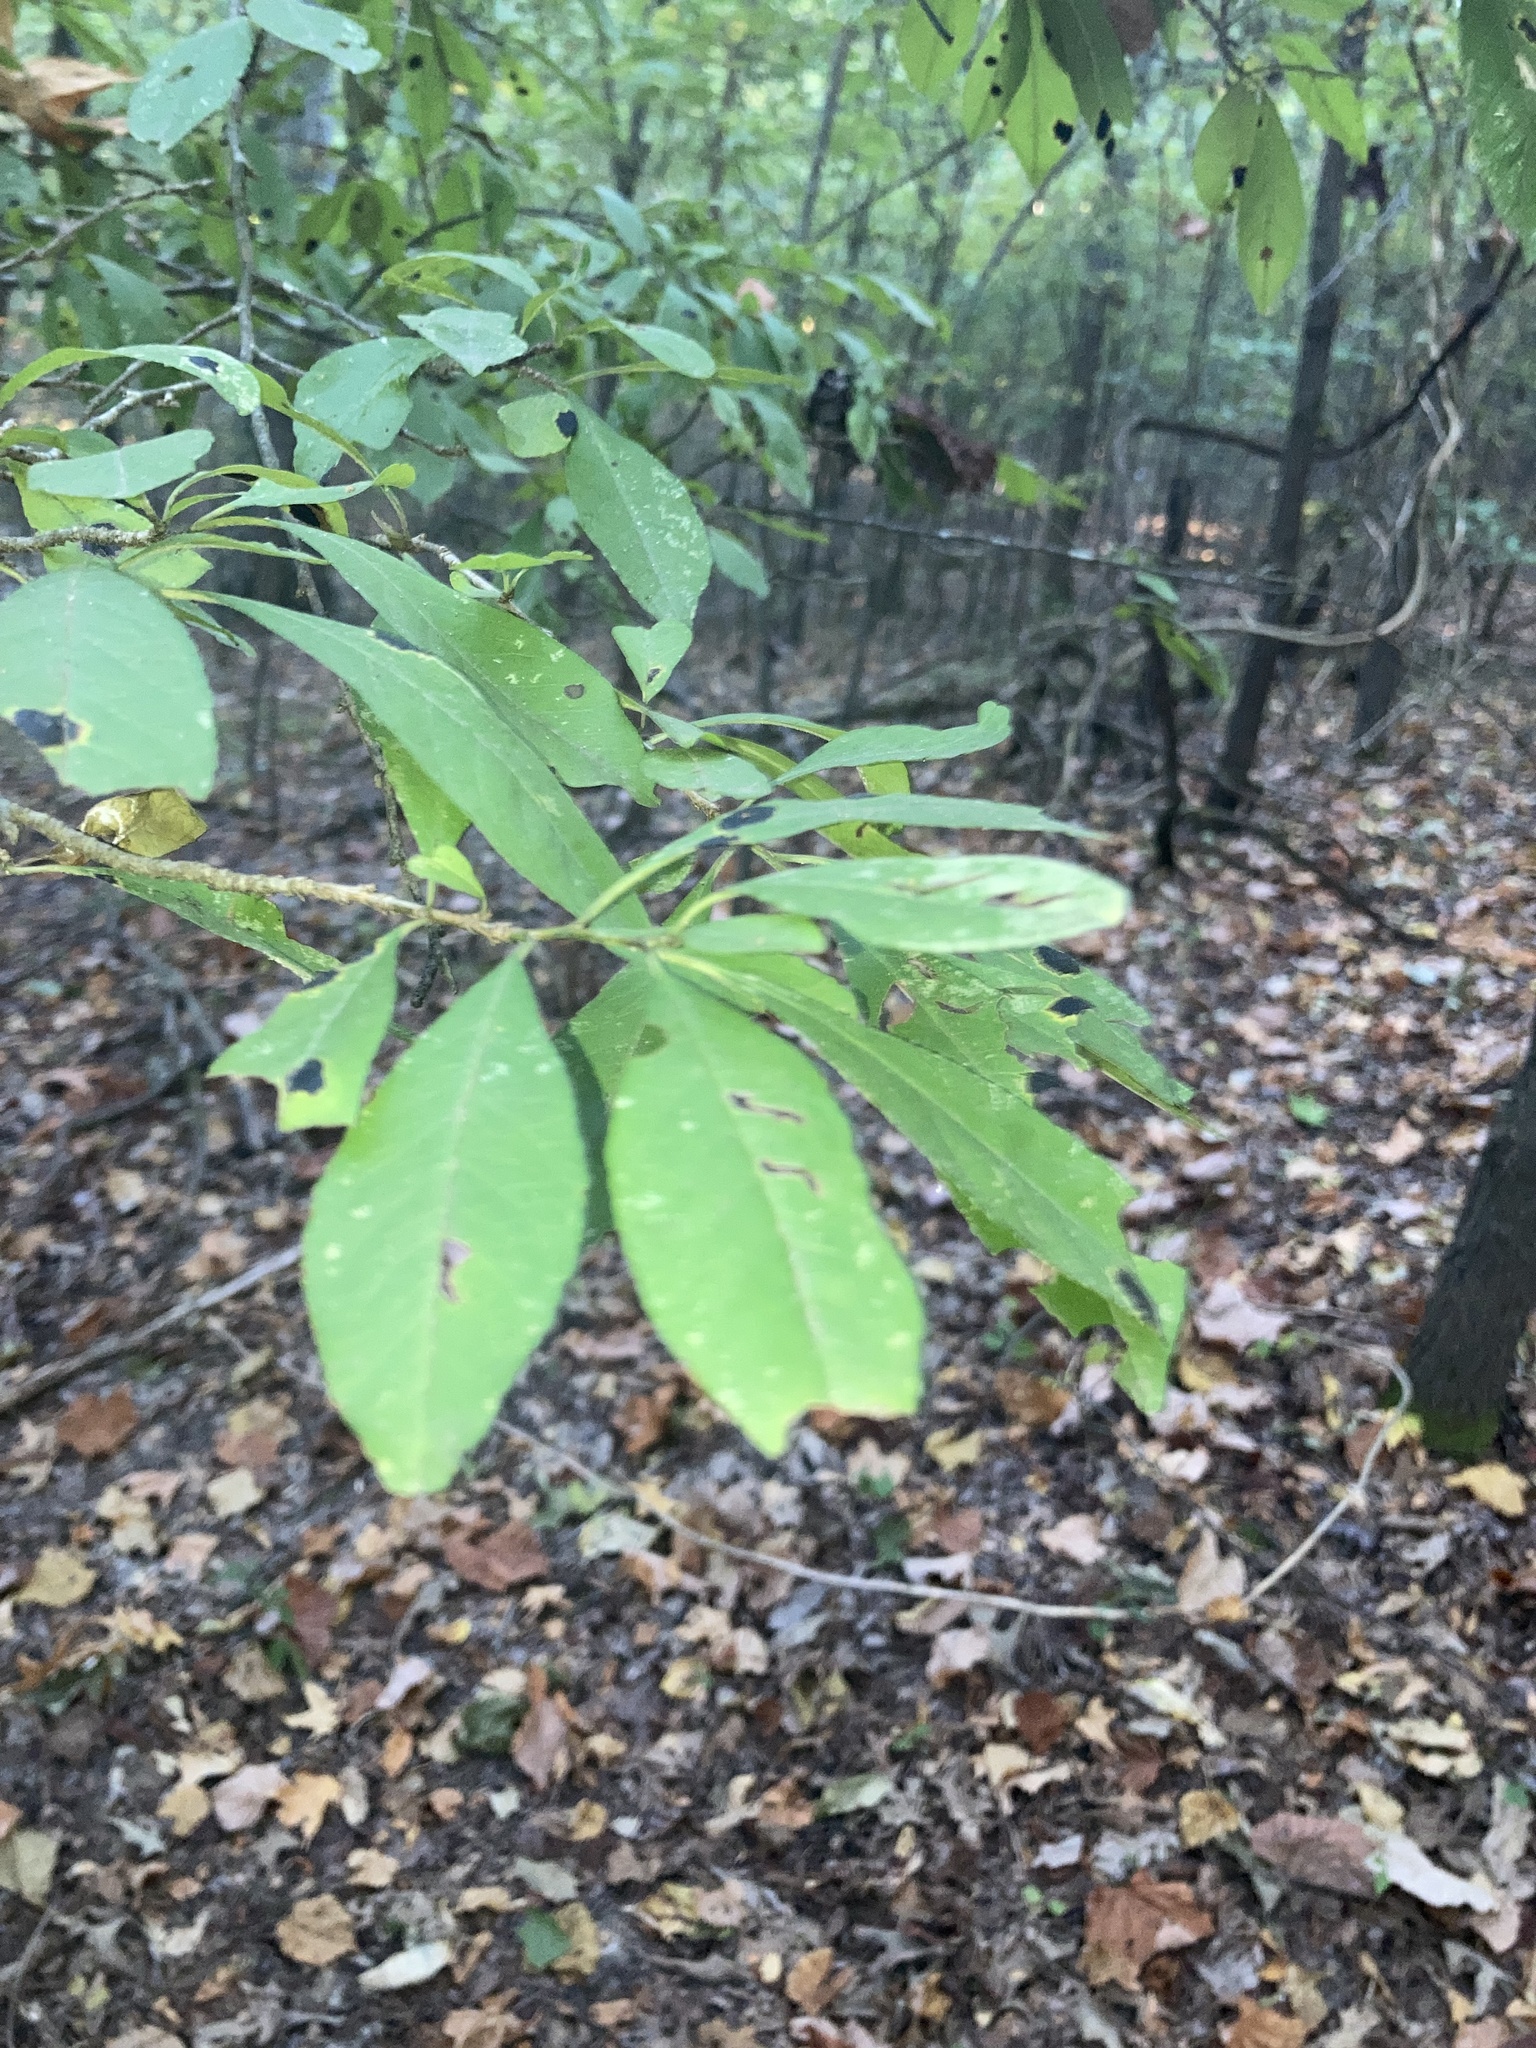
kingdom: Plantae
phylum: Tracheophyta
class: Magnoliopsida
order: Aquifoliales
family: Aquifoliaceae
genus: Ilex
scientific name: Ilex decidua
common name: Possum-haw
